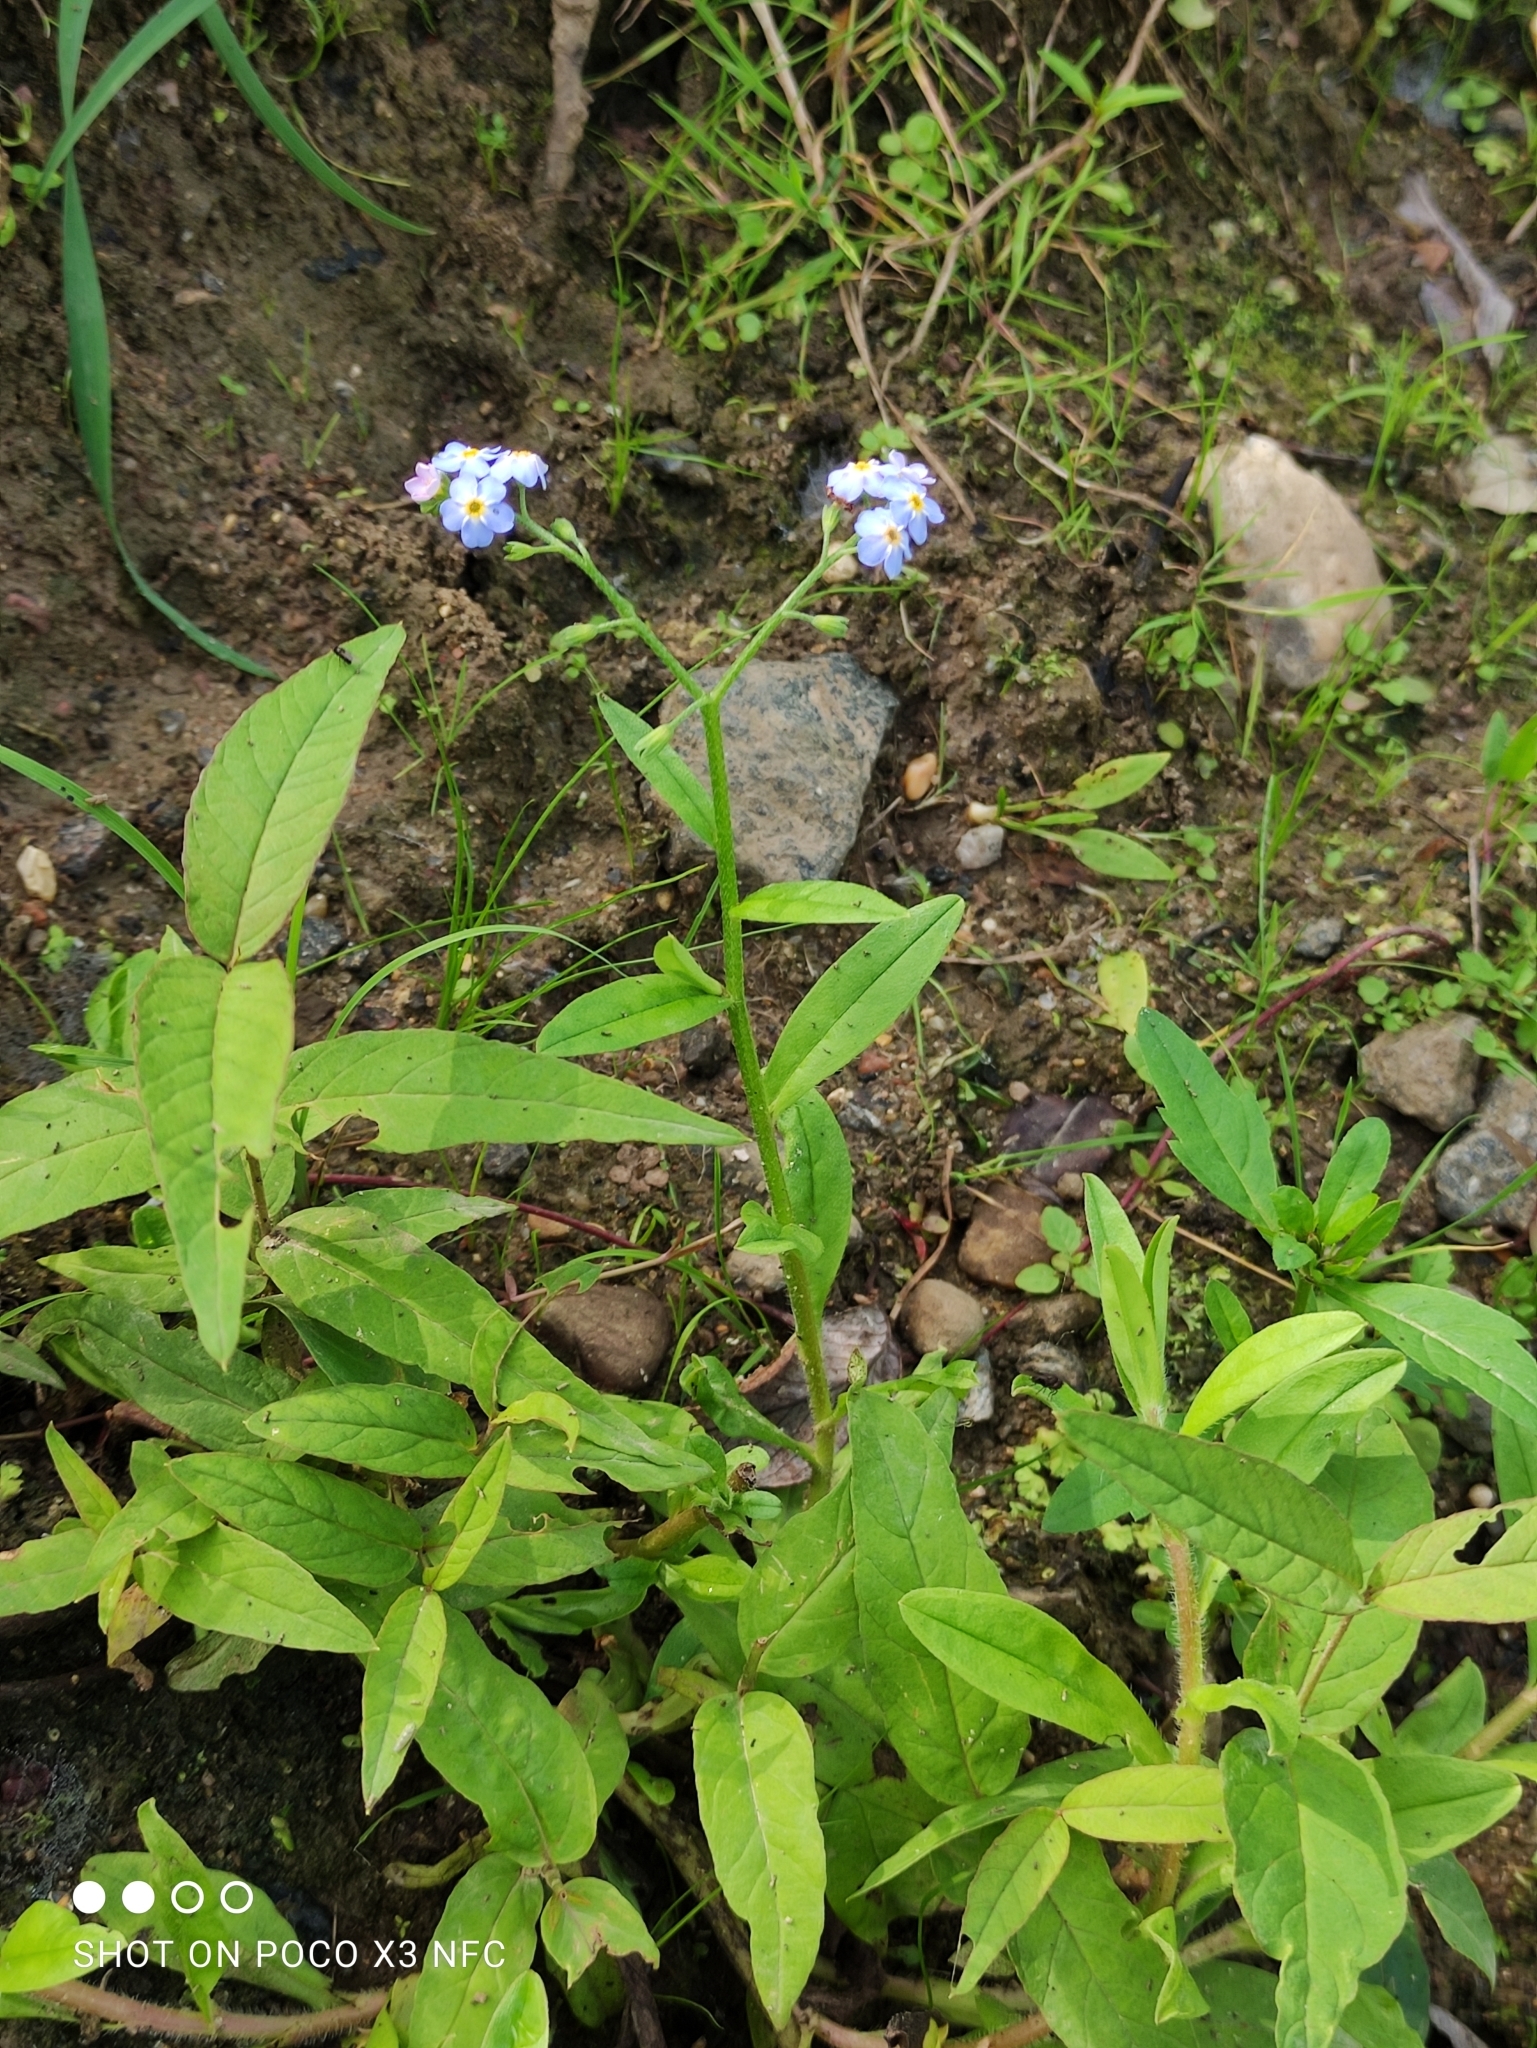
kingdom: Plantae
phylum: Tracheophyta
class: Magnoliopsida
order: Boraginales
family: Boraginaceae
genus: Myosotis
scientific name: Myosotis scorpioides
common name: Water forget-me-not
